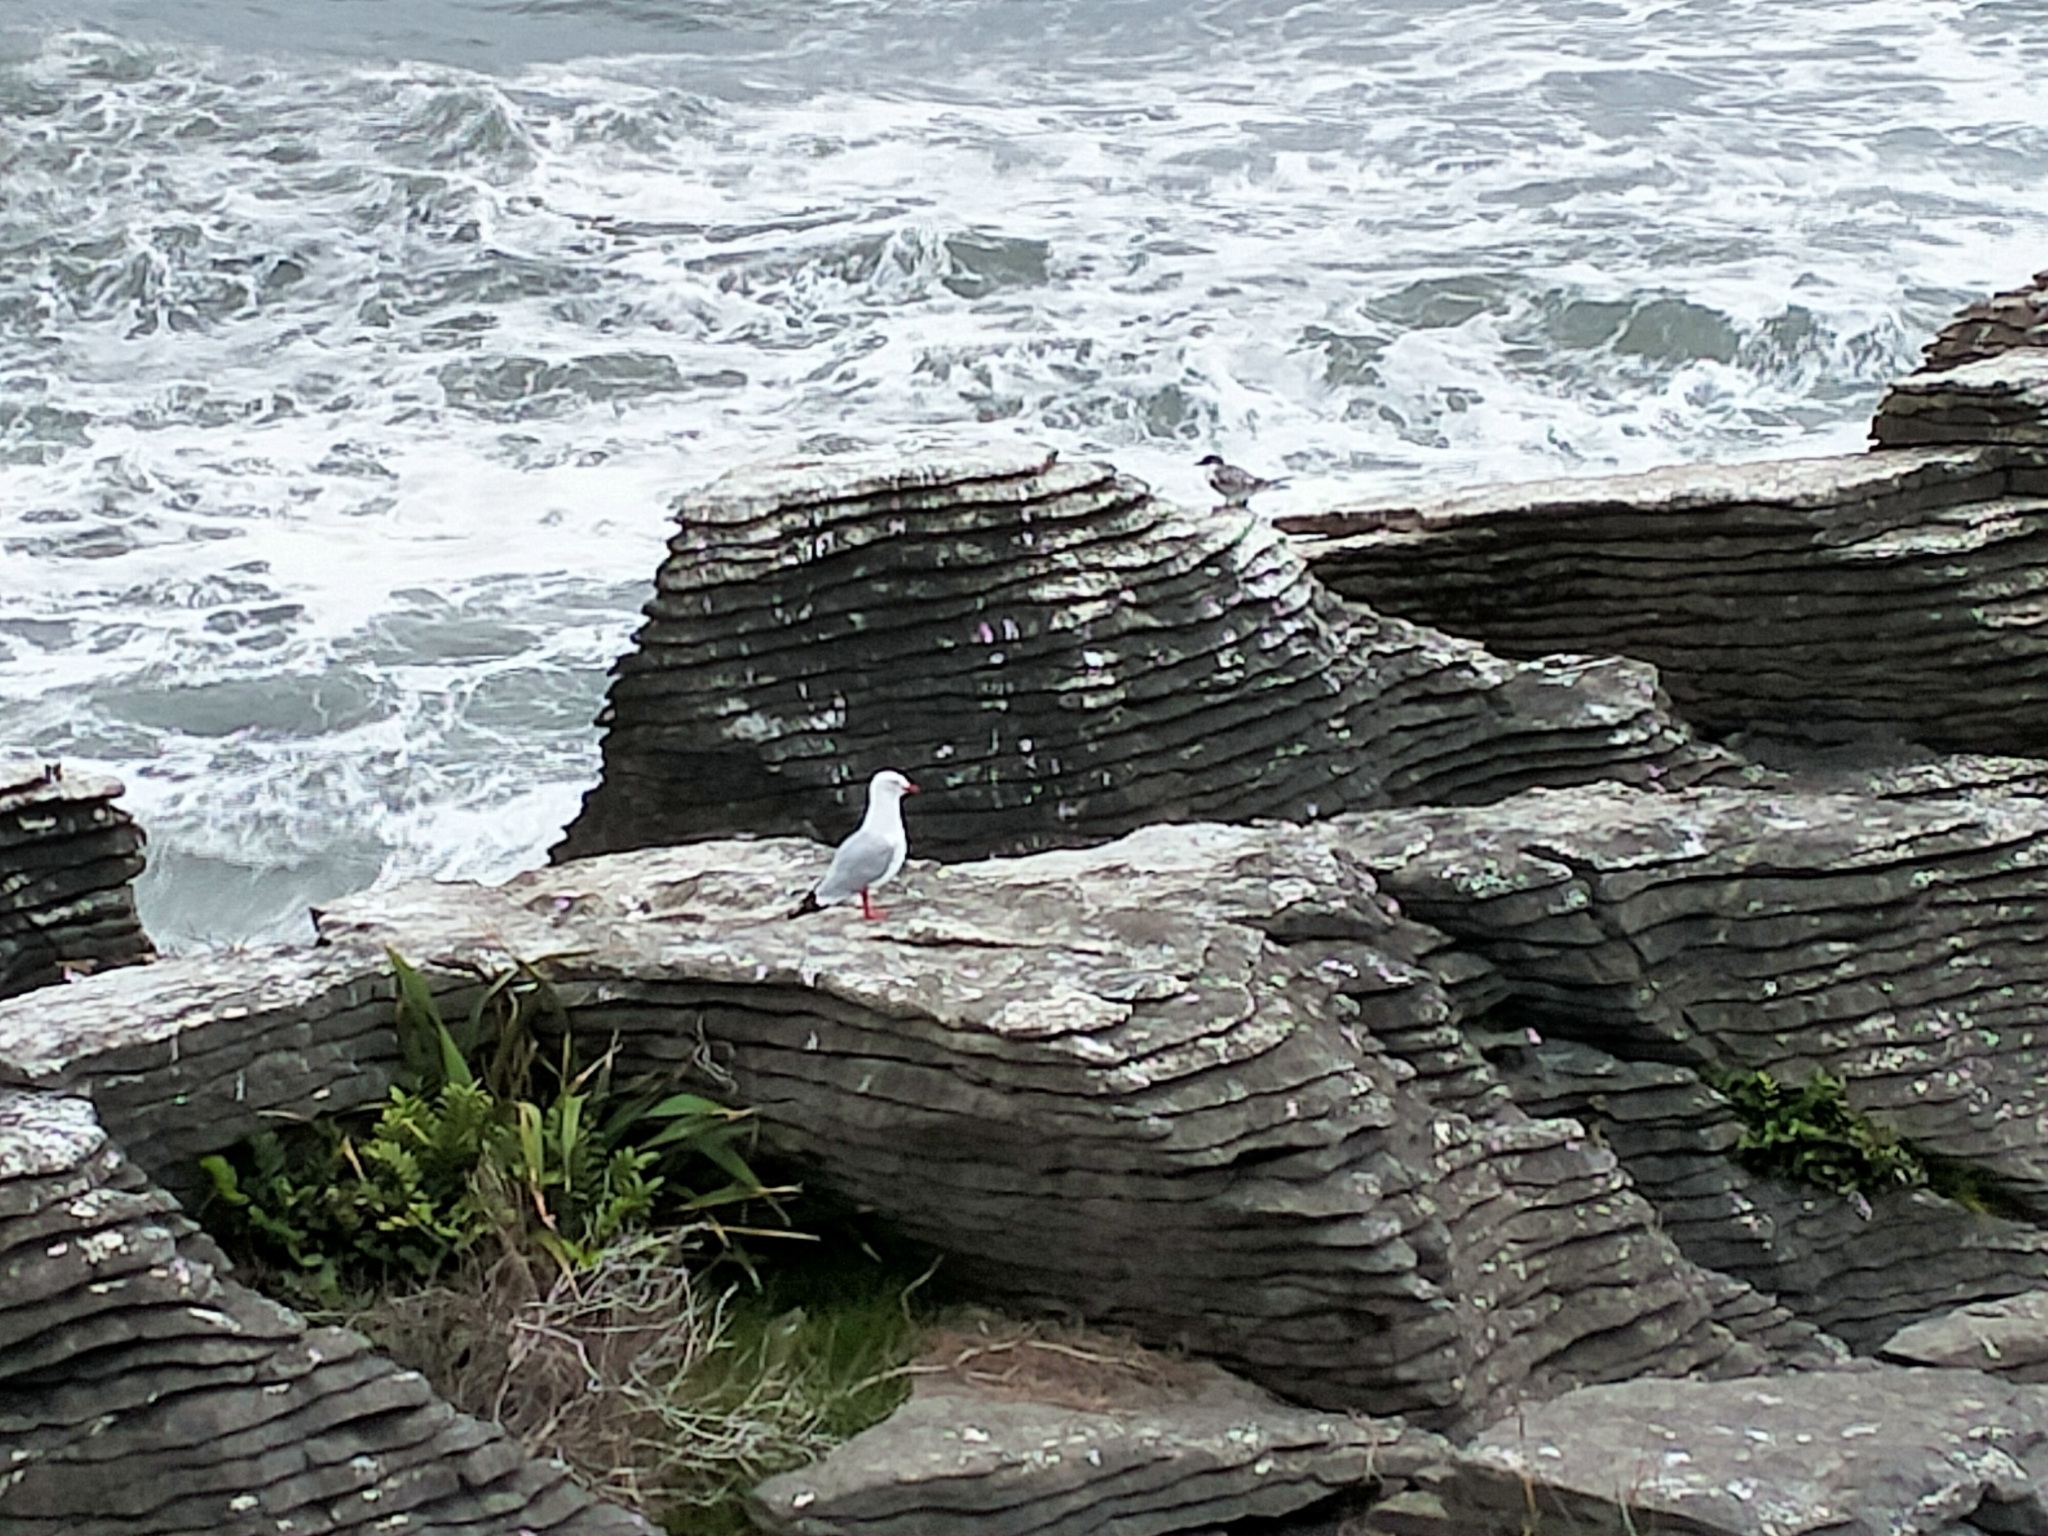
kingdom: Animalia
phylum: Chordata
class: Aves
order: Charadriiformes
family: Laridae
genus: Chroicocephalus
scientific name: Chroicocephalus novaehollandiae
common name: Silver gull
